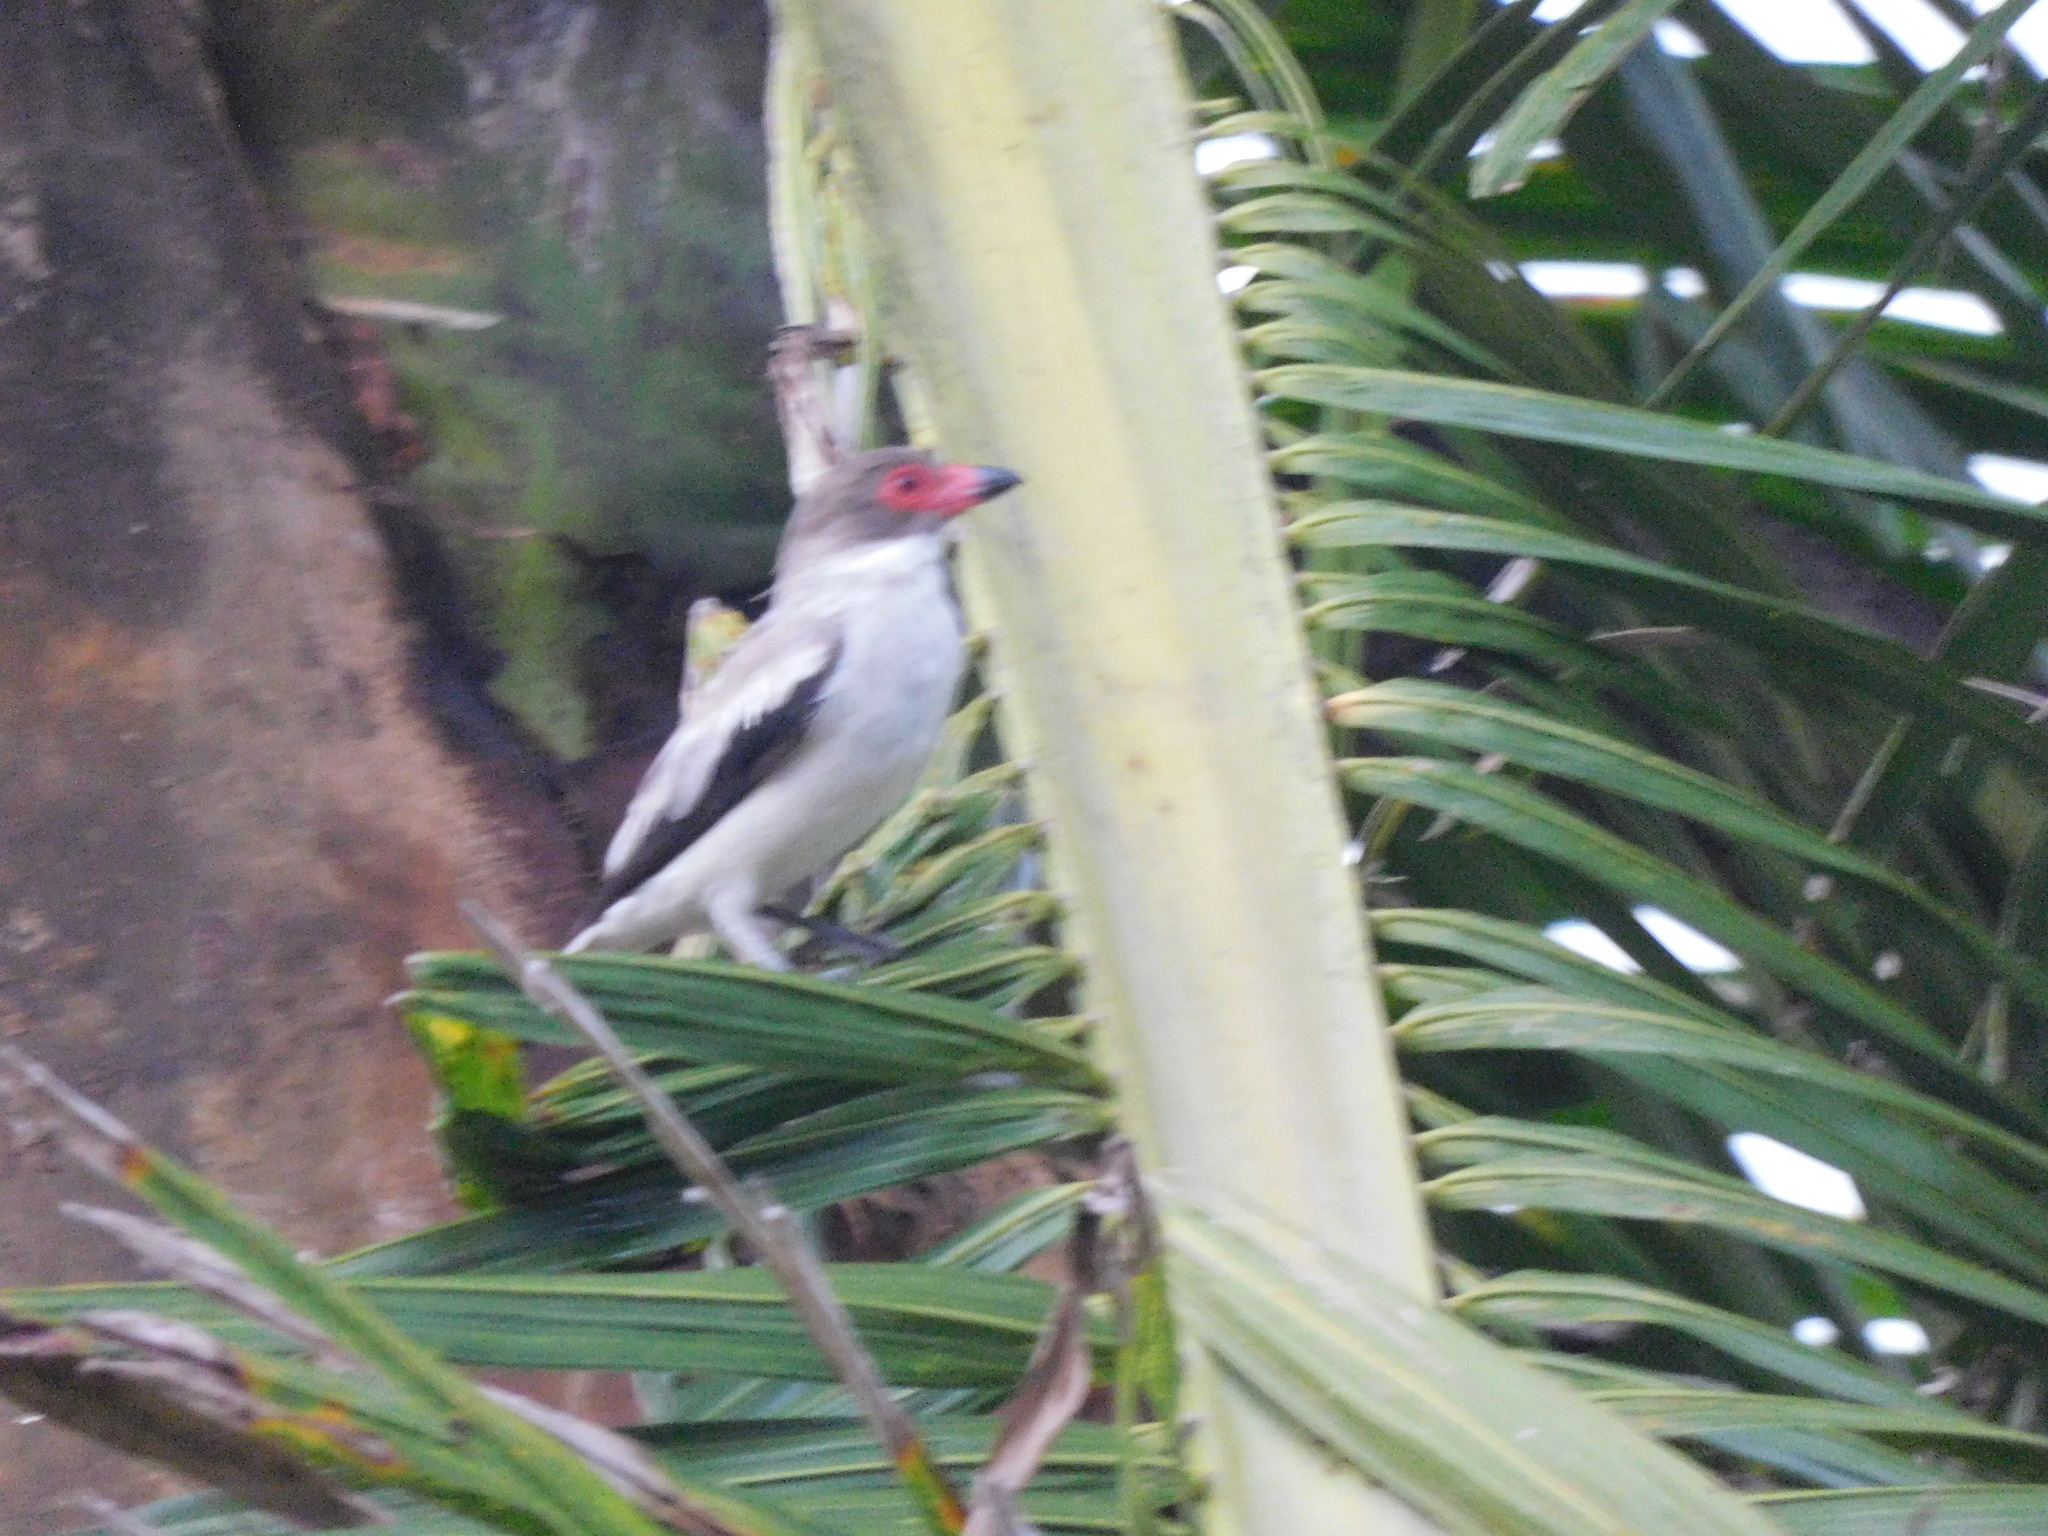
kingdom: Animalia
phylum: Chordata
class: Aves
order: Passeriformes
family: Cotingidae
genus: Tityra
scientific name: Tityra semifasciata
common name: Masked tityra
